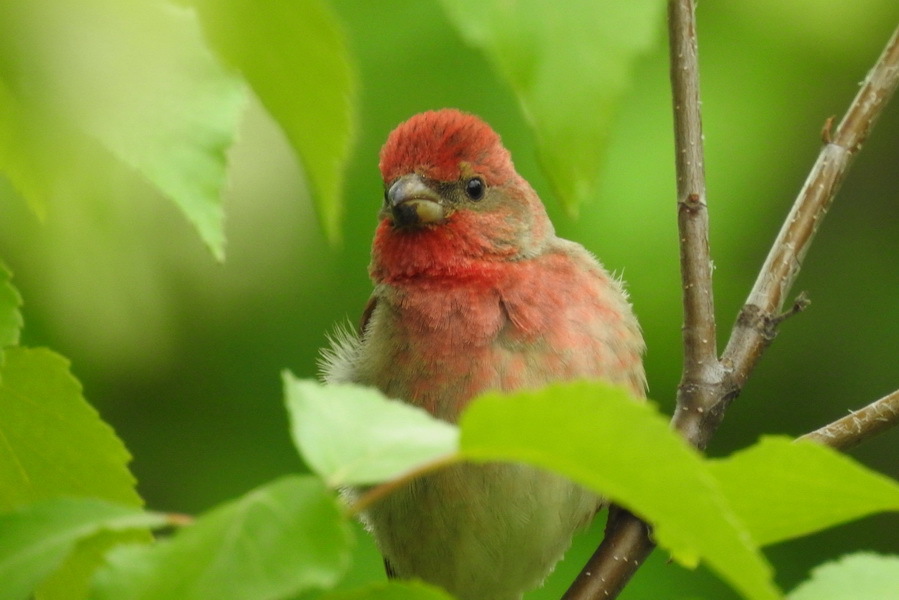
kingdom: Animalia
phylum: Chordata
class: Aves
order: Passeriformes
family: Fringillidae
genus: Carpodacus
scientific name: Carpodacus erythrinus
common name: Common rosefinch
